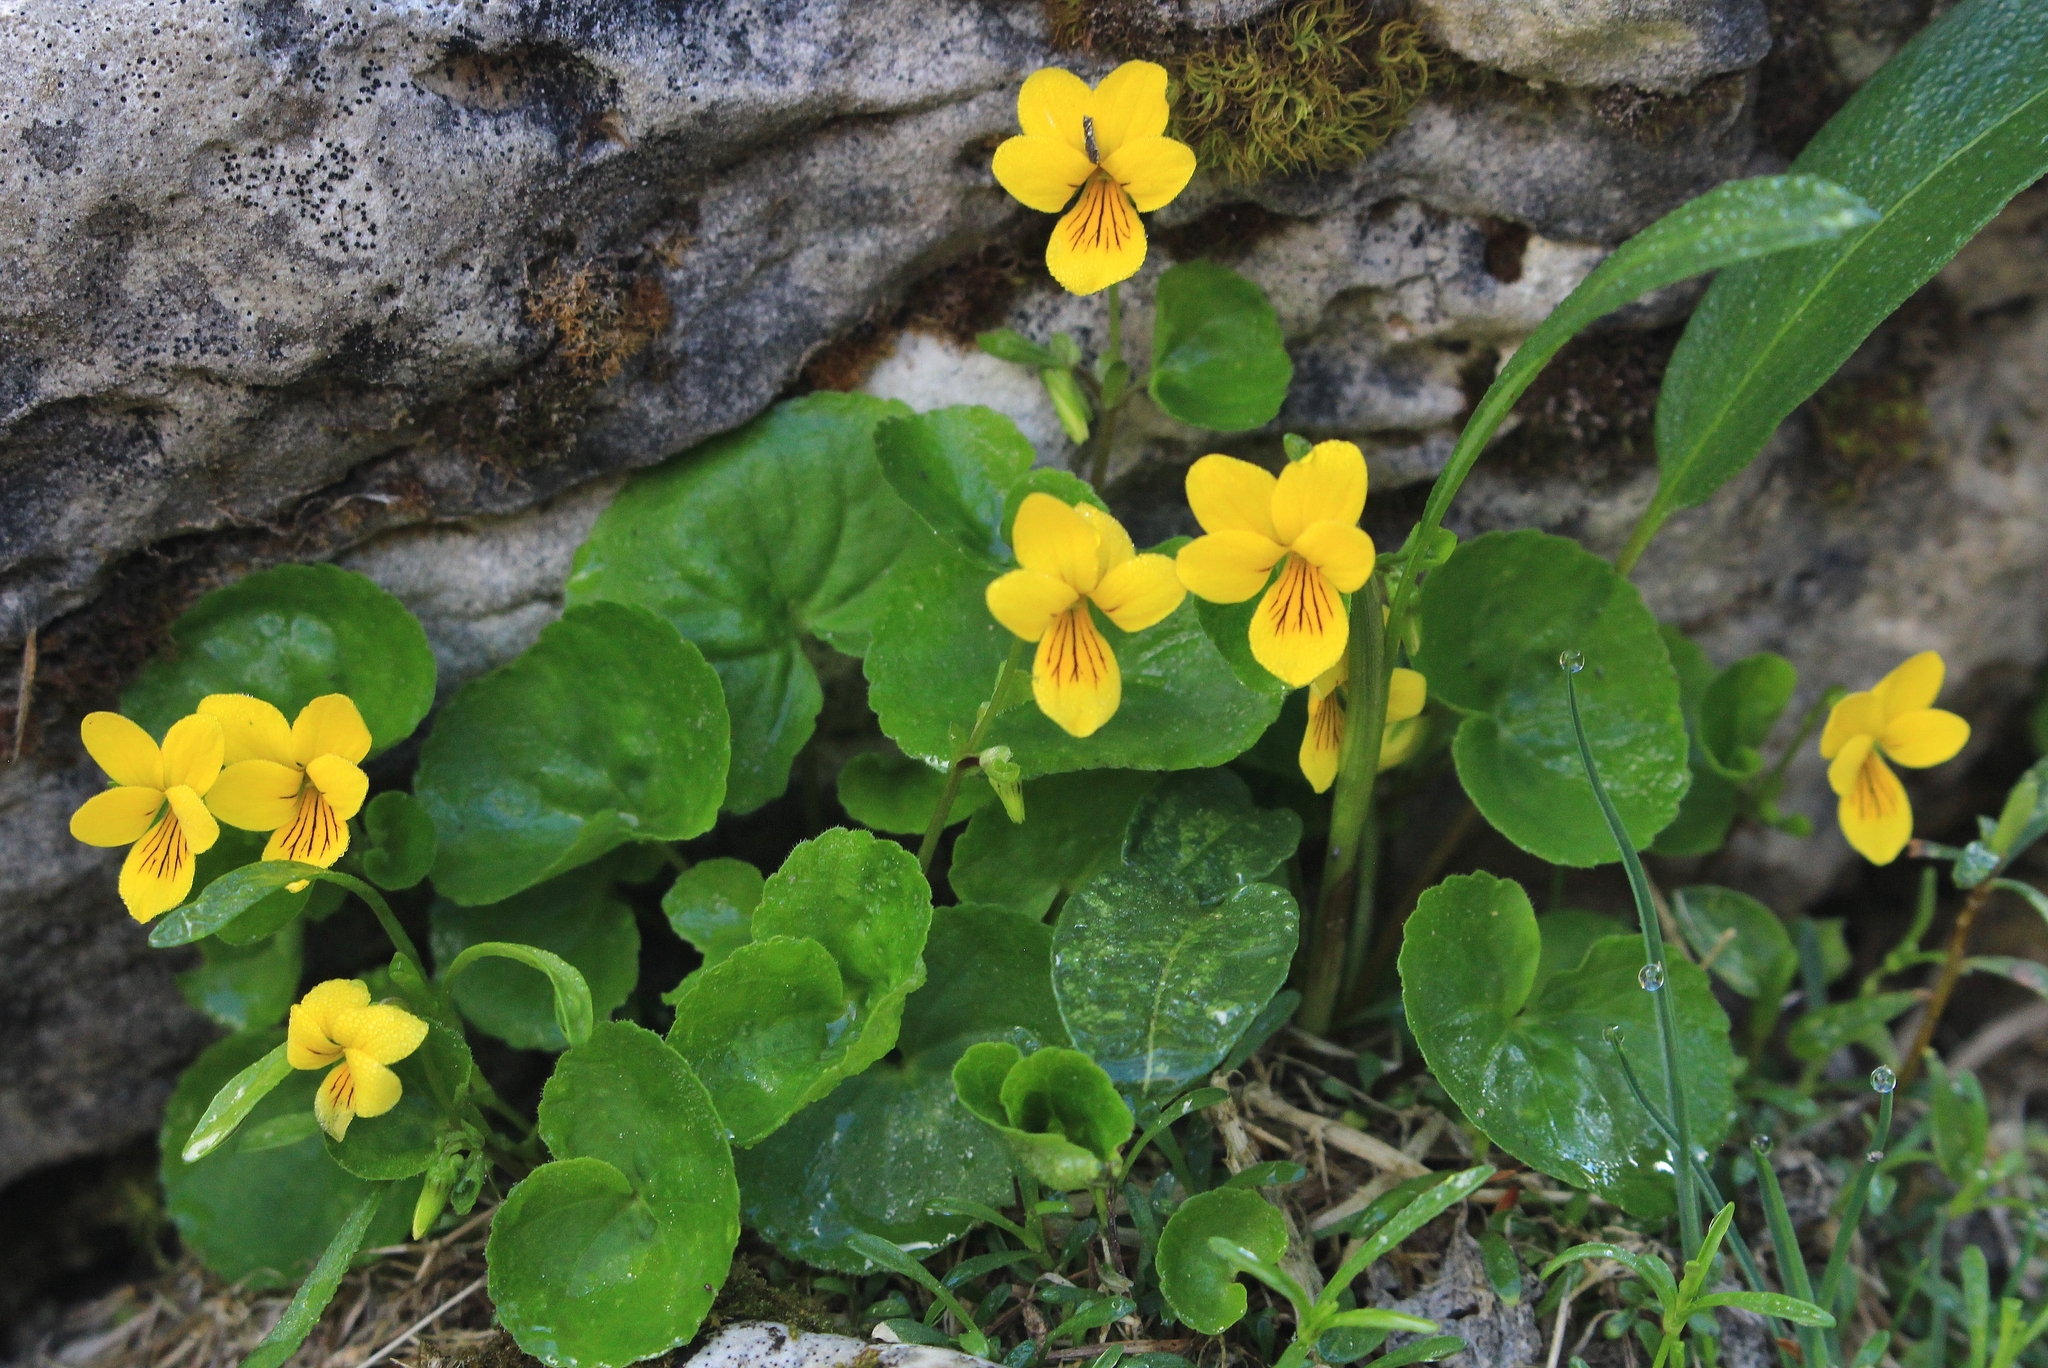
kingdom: Plantae
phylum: Tracheophyta
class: Magnoliopsida
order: Malpighiales
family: Violaceae
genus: Viola
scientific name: Viola biflora
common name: Alpine yellow violet
